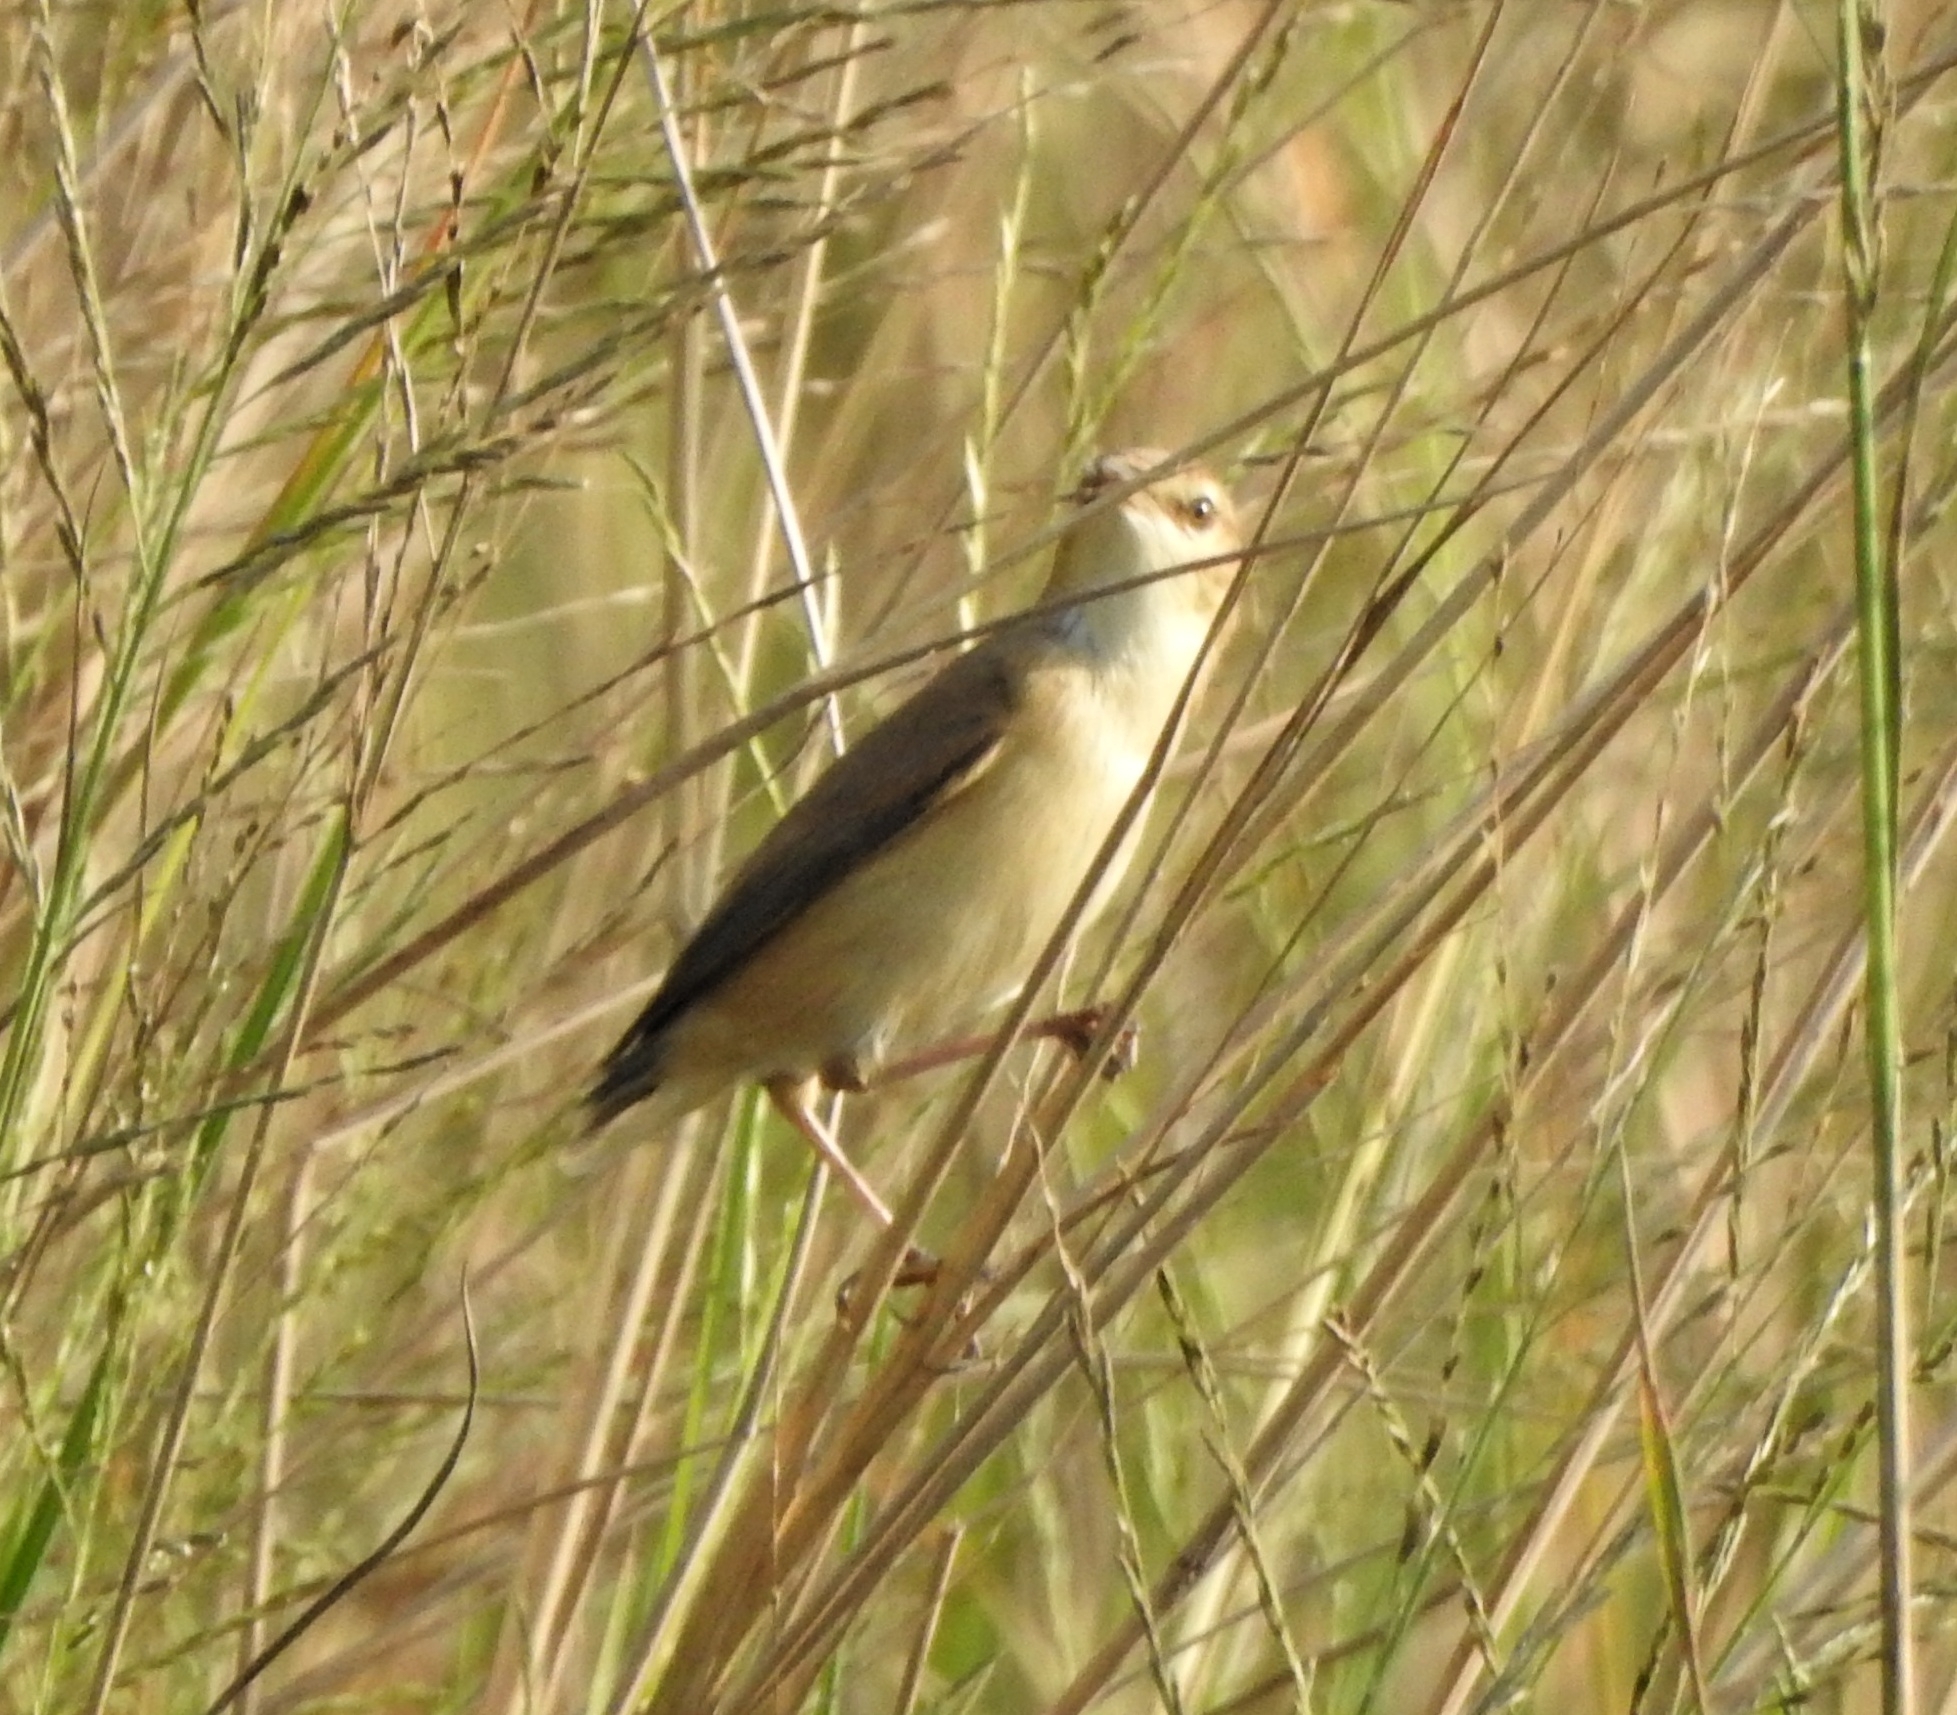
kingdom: Animalia
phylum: Chordata
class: Aves
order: Passeriformes
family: Acrocephalidae
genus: Acrocephalus
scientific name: Acrocephalus agricola
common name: Paddyfield warbler
